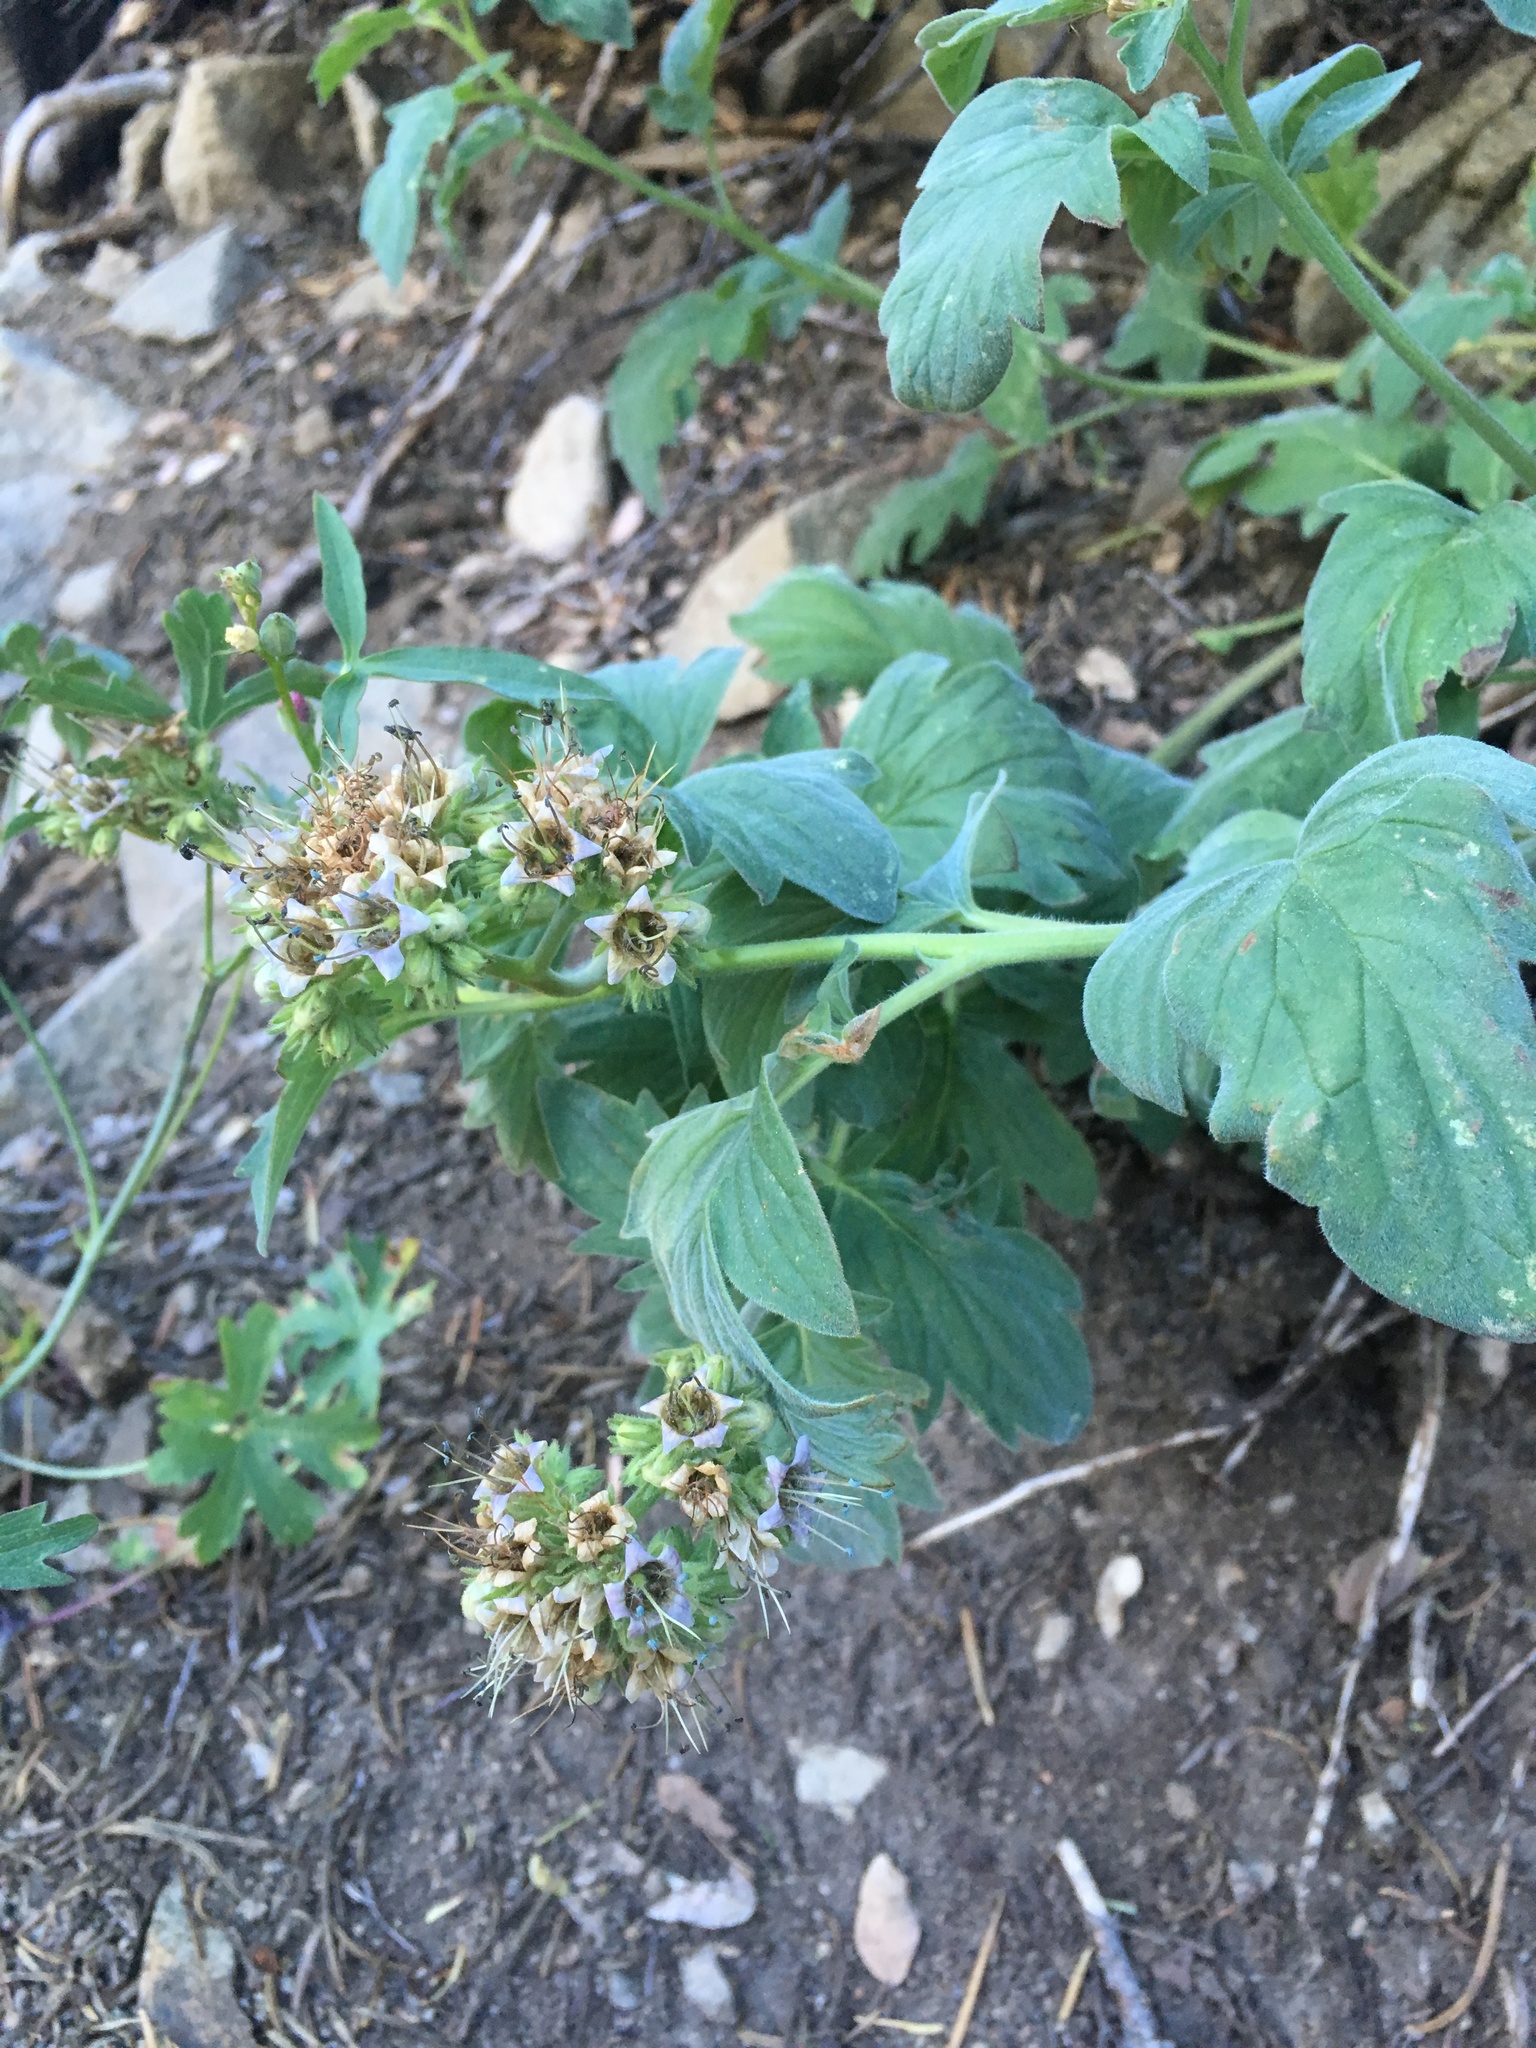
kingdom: Plantae
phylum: Tracheophyta
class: Magnoliopsida
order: Boraginales
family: Hydrophyllaceae
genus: Phacelia
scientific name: Phacelia procera
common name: Tall phacelia
